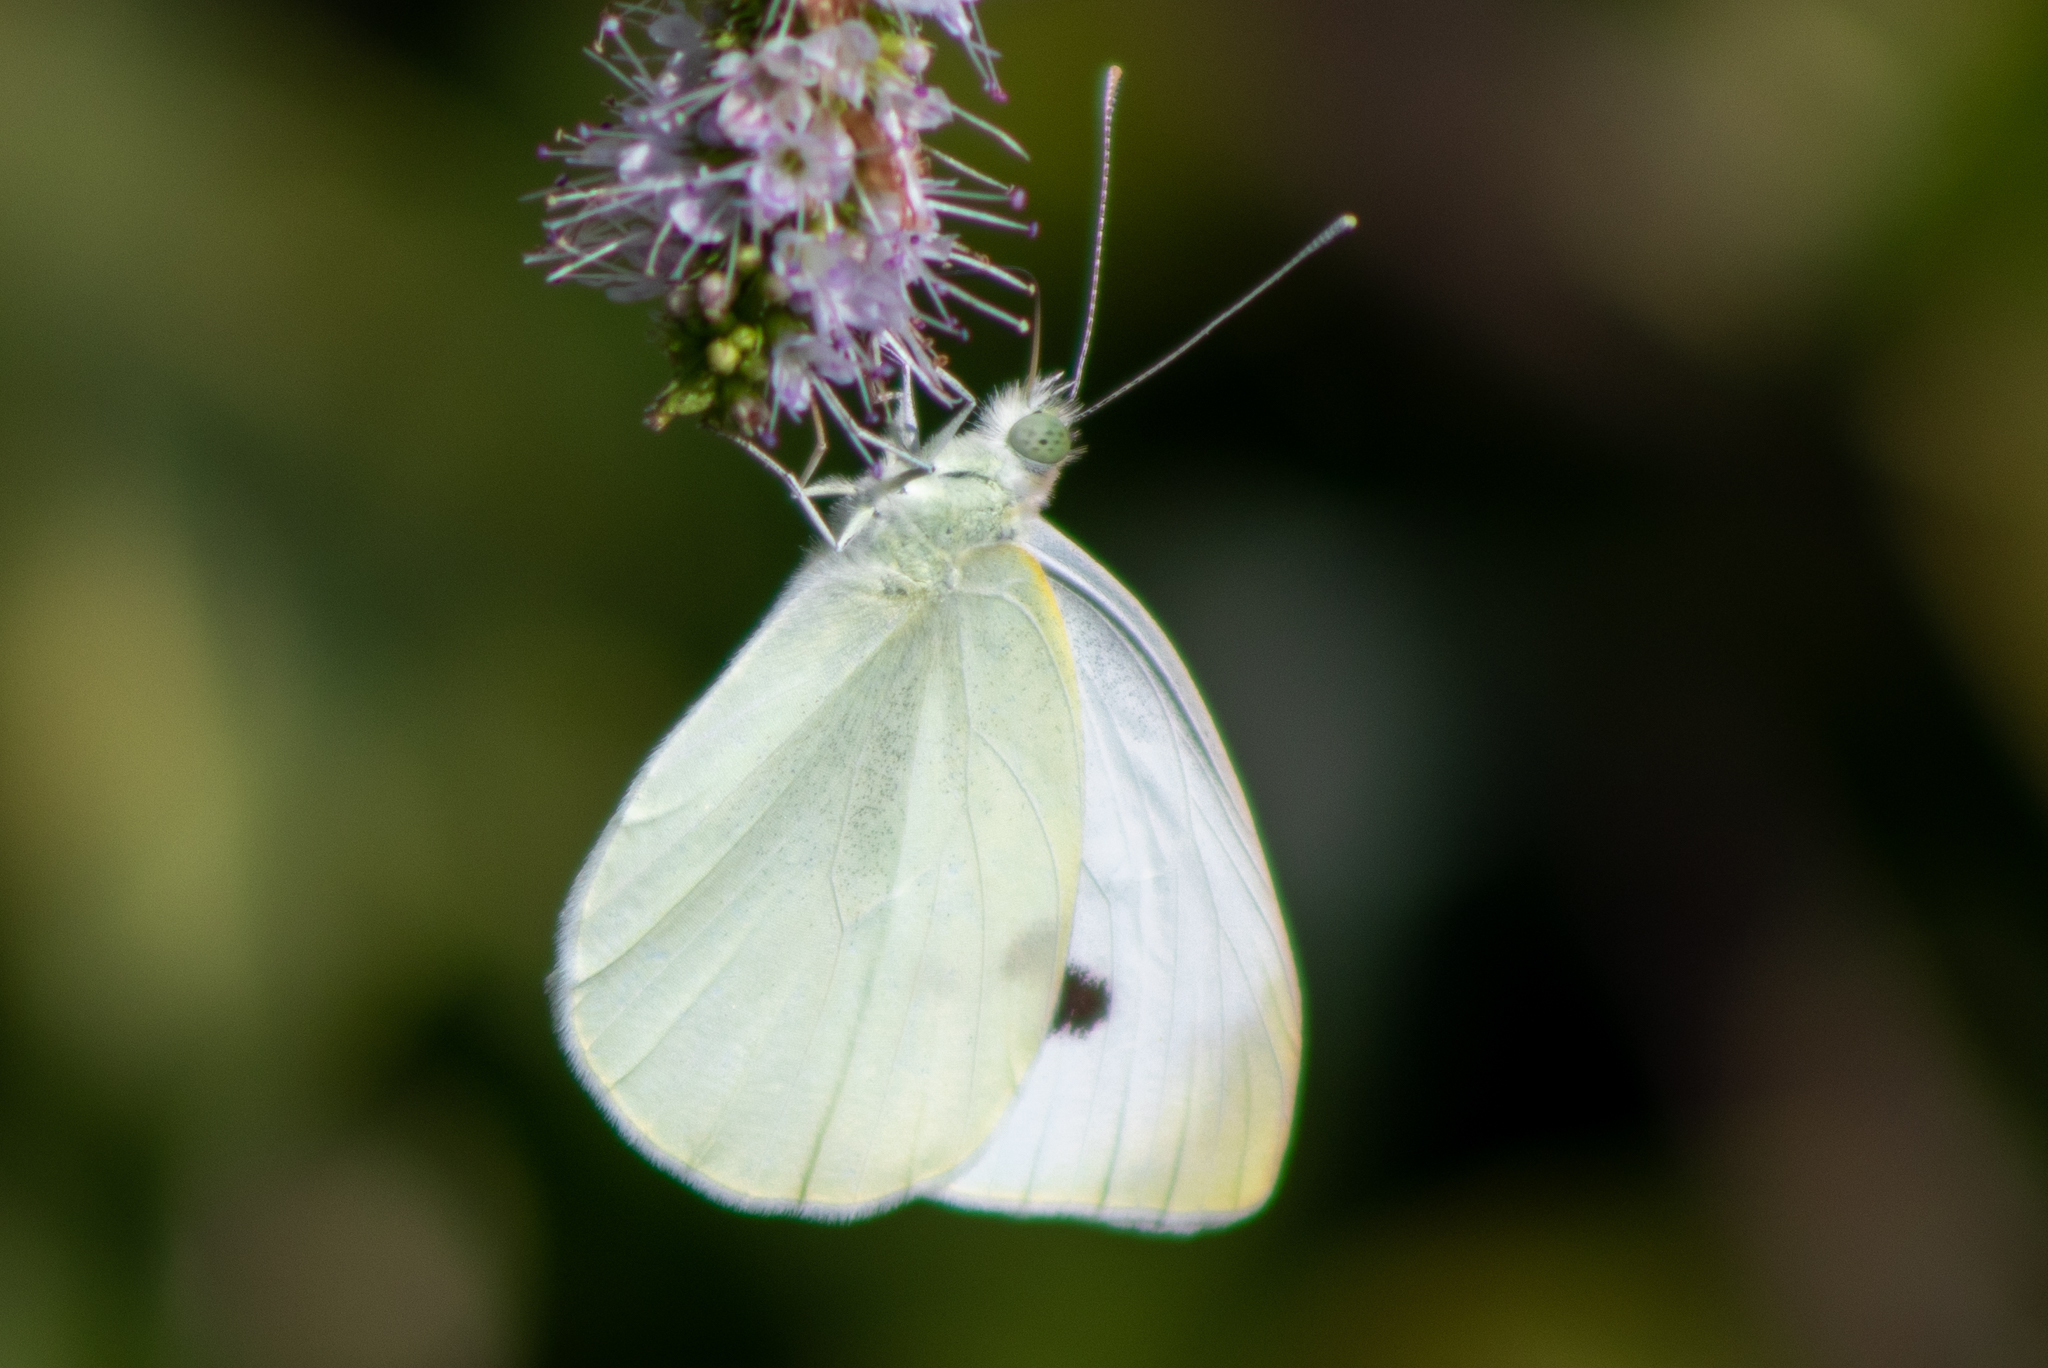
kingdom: Animalia
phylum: Arthropoda
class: Insecta
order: Lepidoptera
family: Pieridae
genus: Pieris
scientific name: Pieris rapae
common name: Small white
